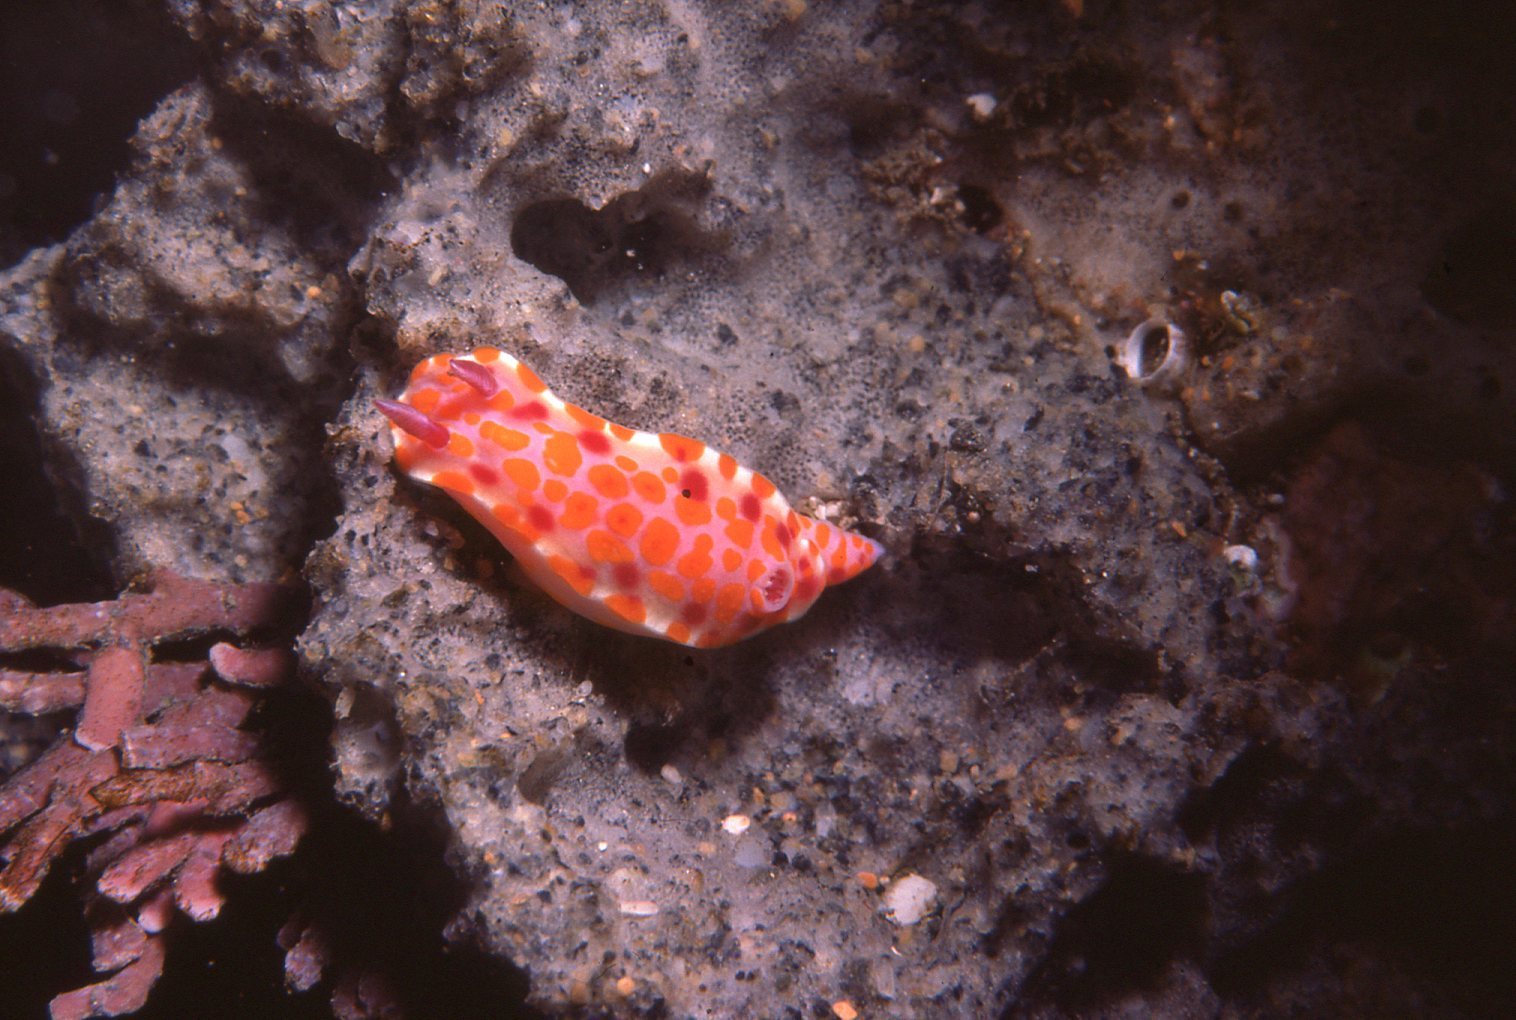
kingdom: Animalia
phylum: Mollusca
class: Gastropoda
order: Nudibranchia
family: Chromodorididae
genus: Ceratosoma
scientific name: Ceratosoma amoenum
